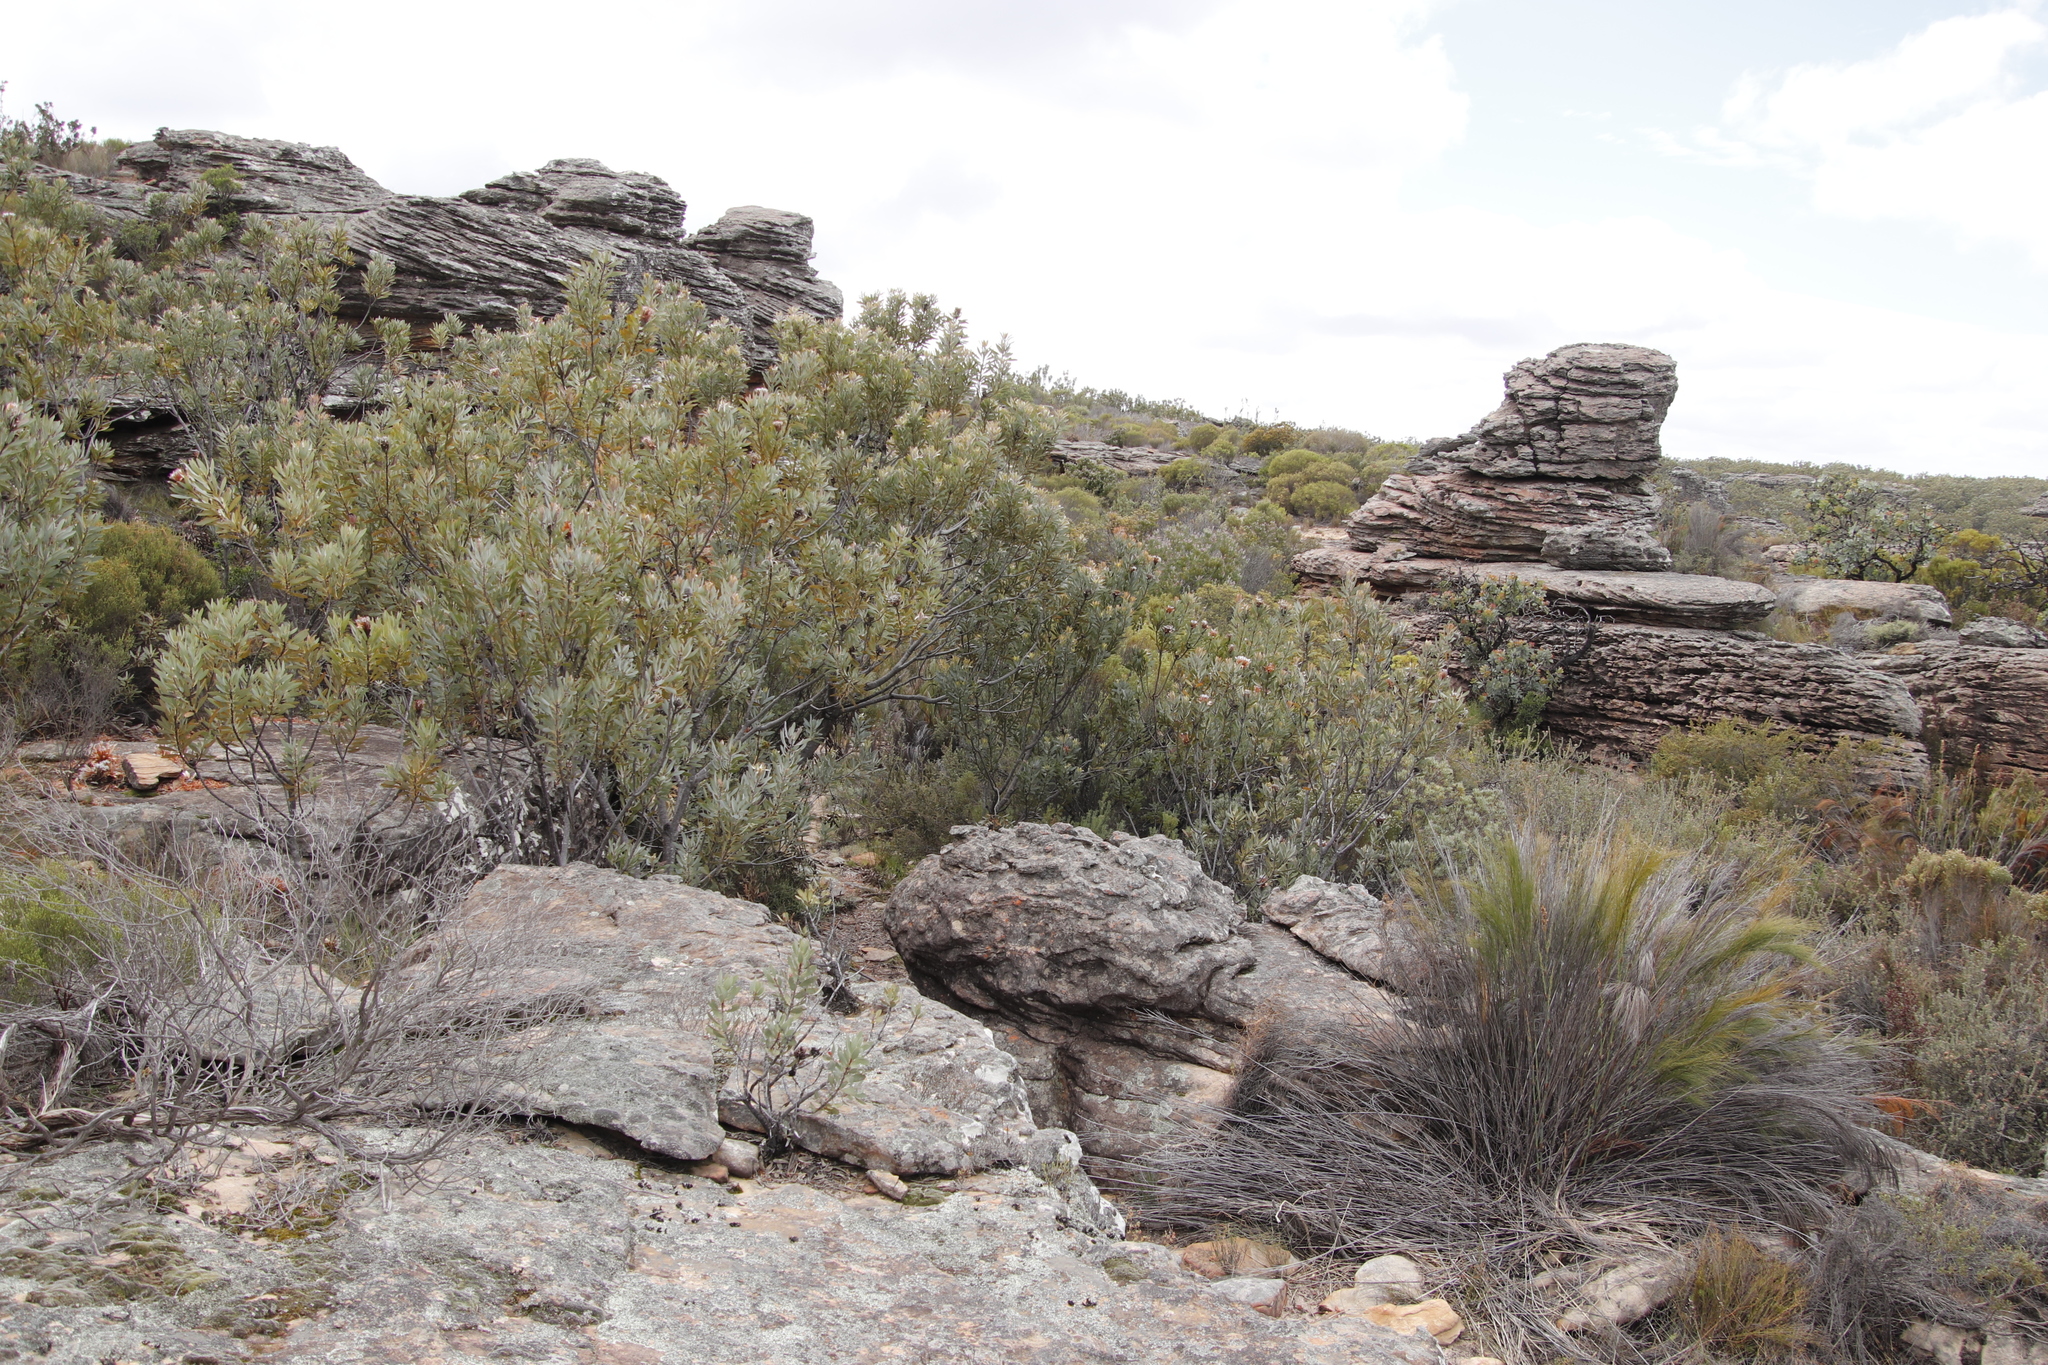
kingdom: Plantae
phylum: Tracheophyta
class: Magnoliopsida
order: Proteales
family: Proteaceae
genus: Protea
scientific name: Protea laurifolia
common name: Grey-leaf sugarbsh
